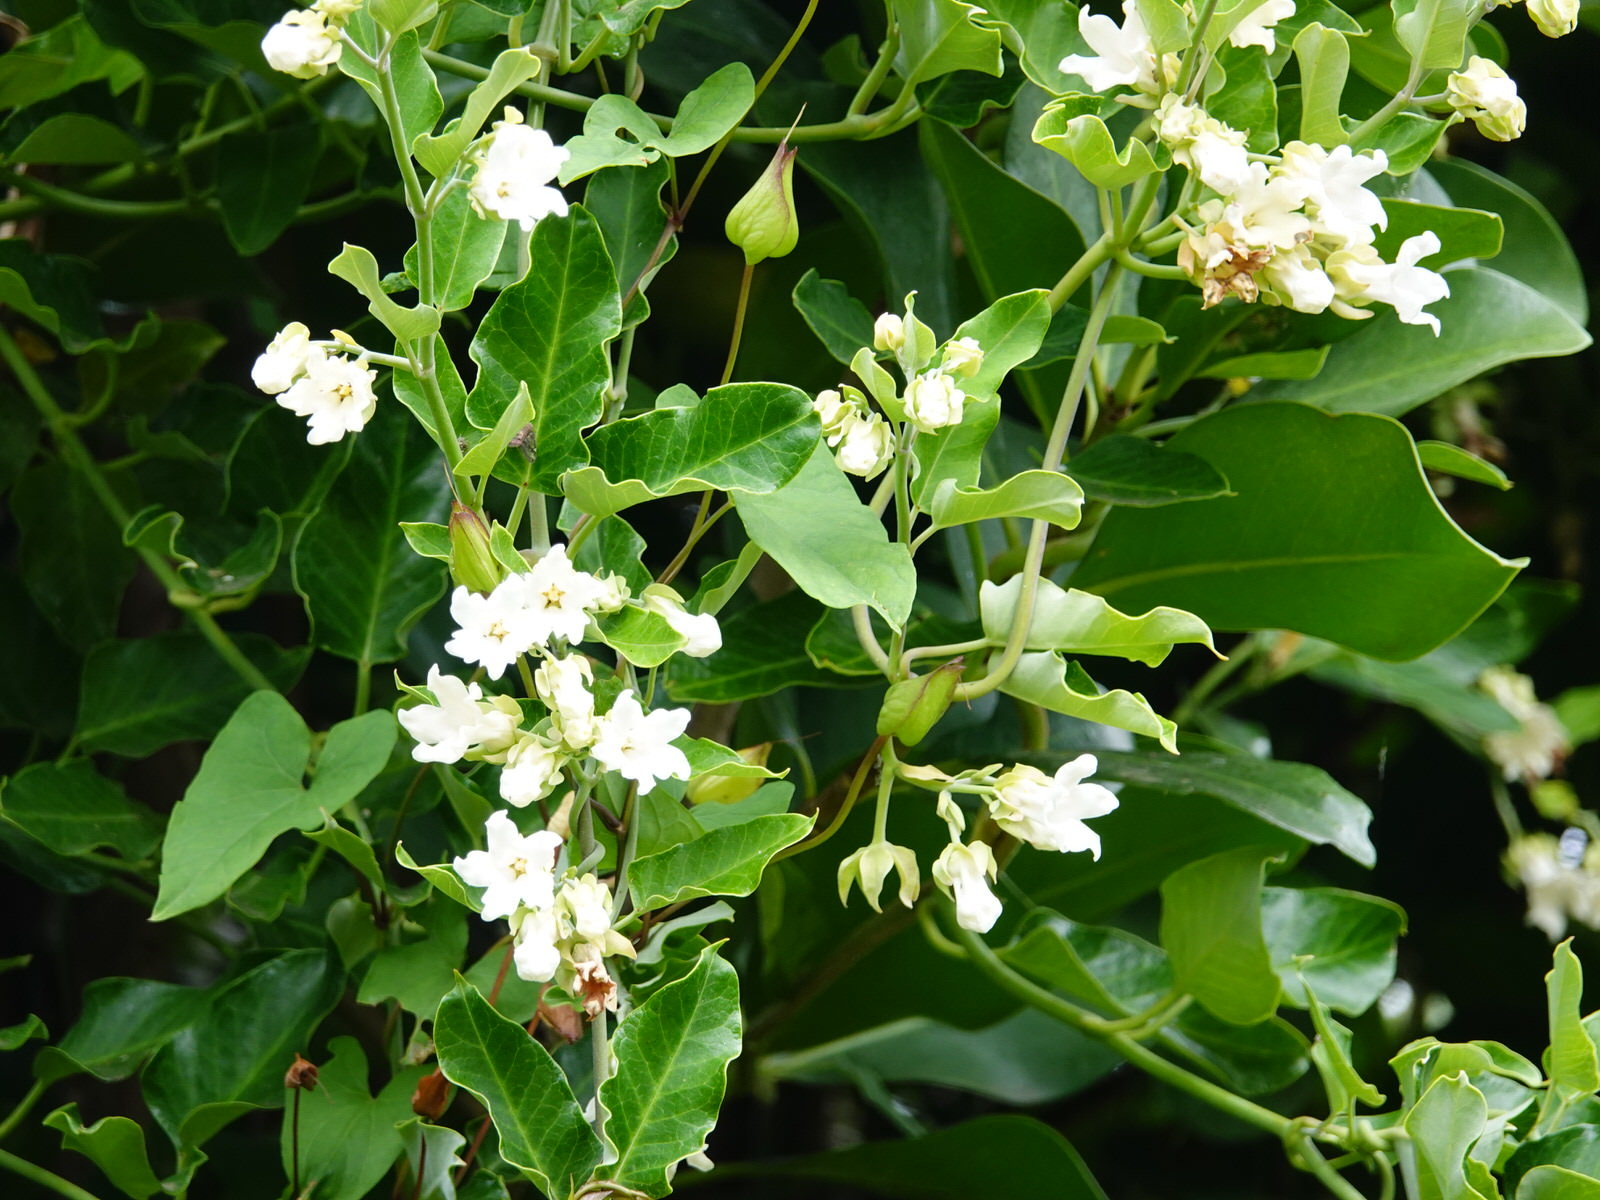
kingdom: Plantae
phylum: Tracheophyta
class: Magnoliopsida
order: Gentianales
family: Apocynaceae
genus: Araujia
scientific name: Araujia sericifera
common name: White bladderflower
